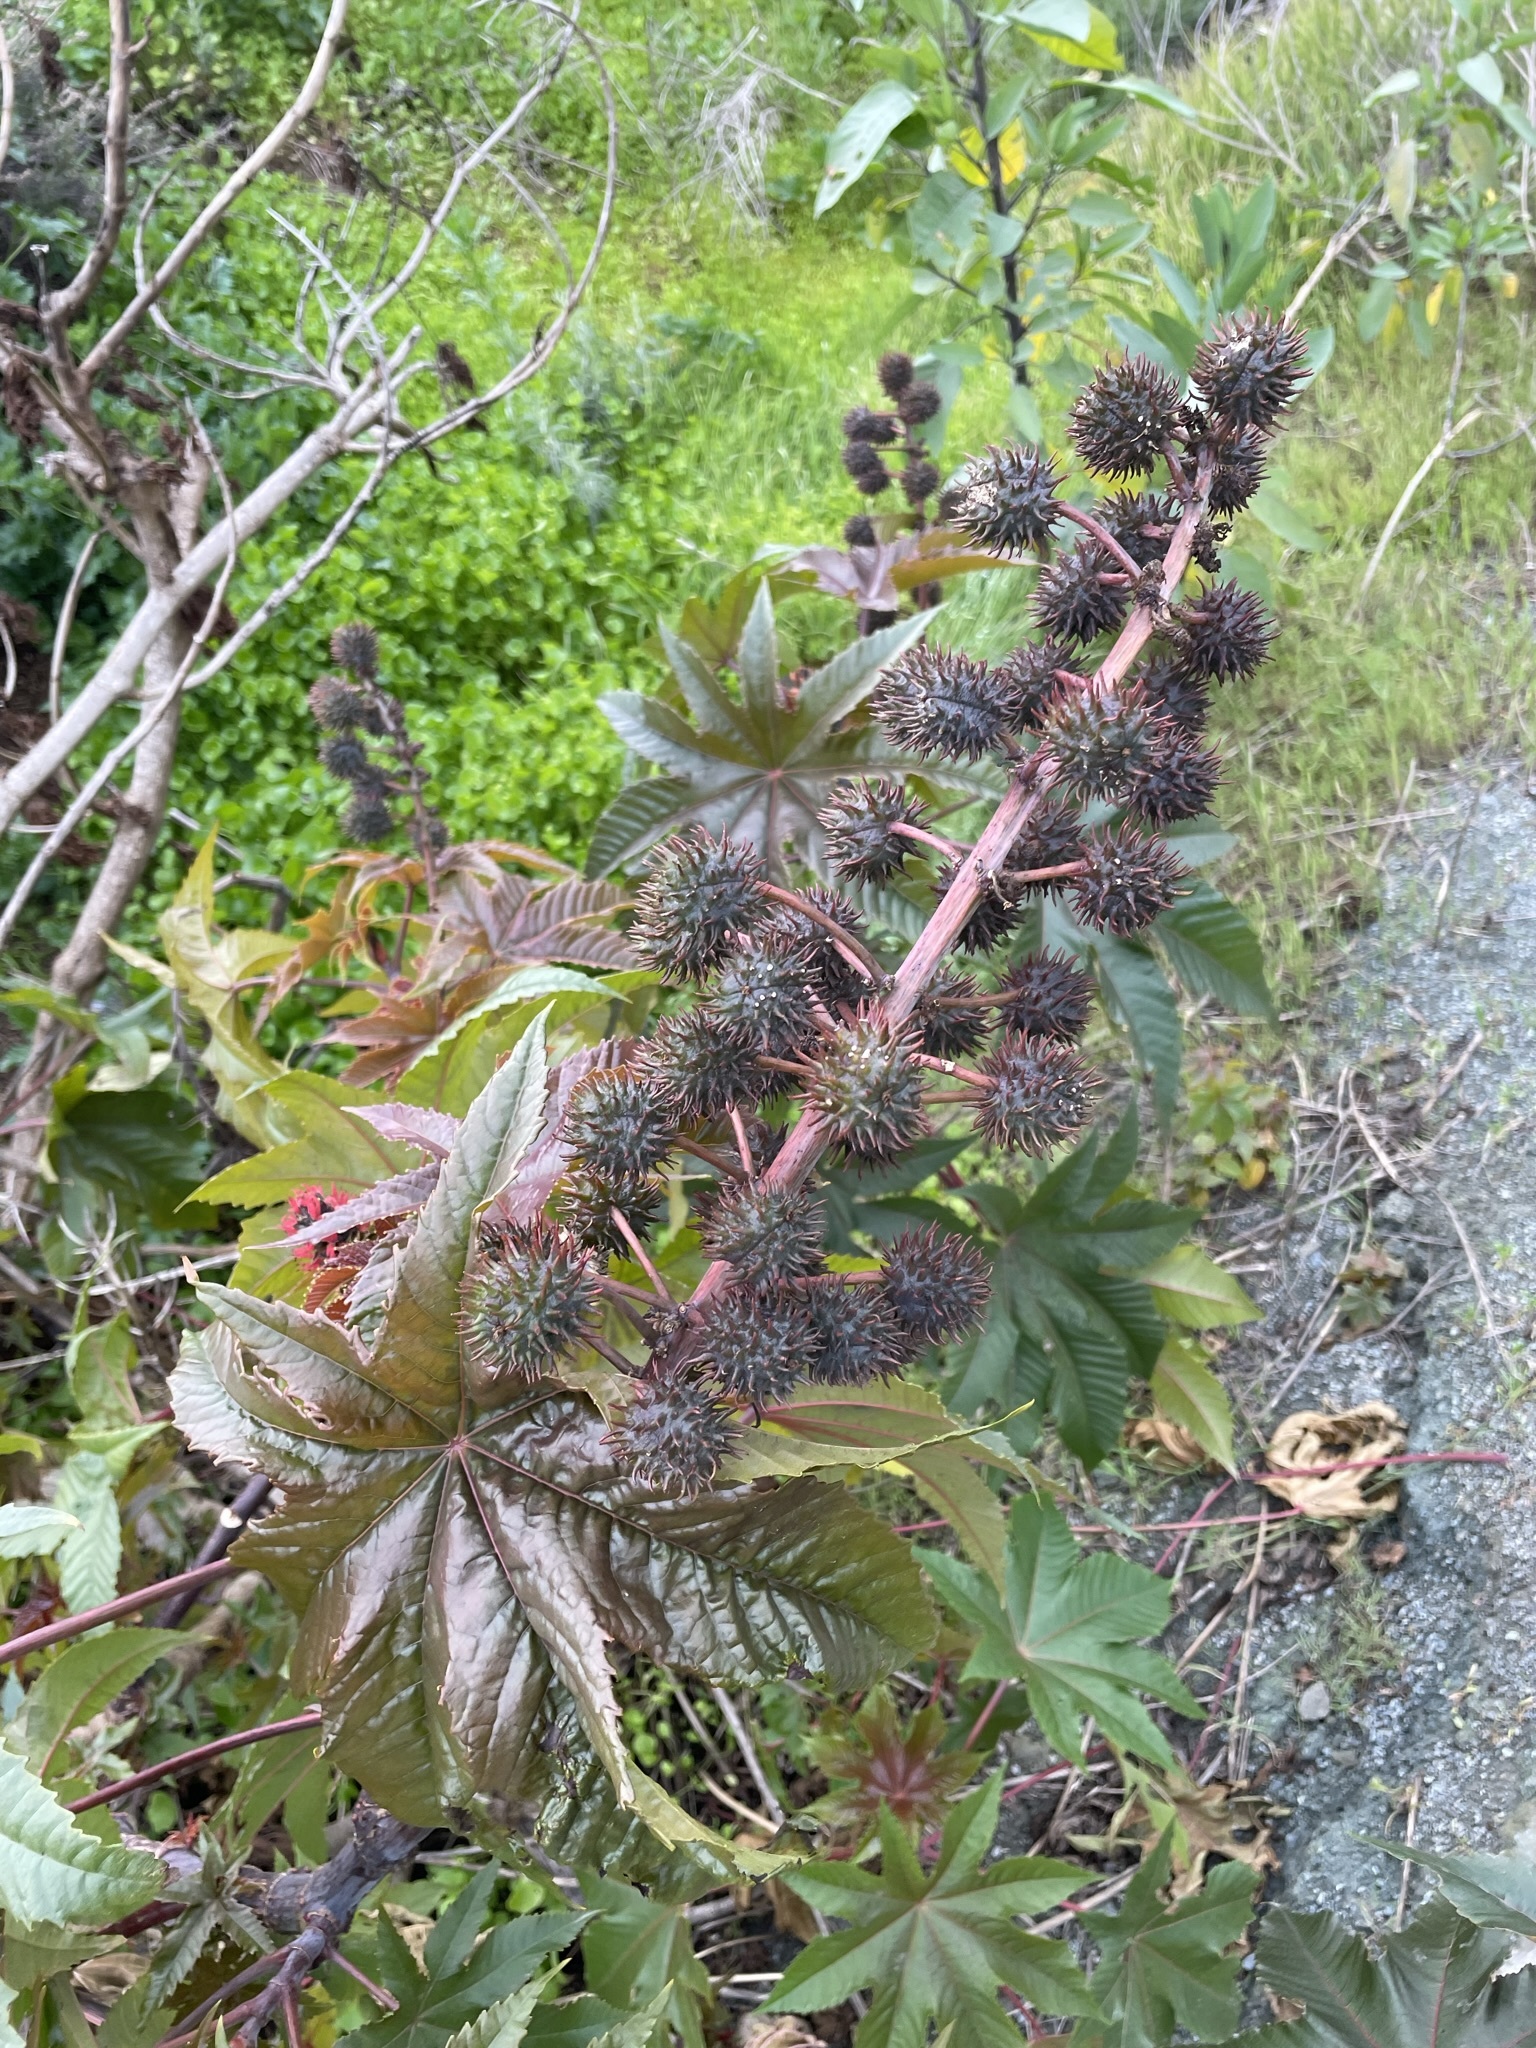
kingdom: Plantae
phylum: Tracheophyta
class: Magnoliopsida
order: Malpighiales
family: Euphorbiaceae
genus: Ricinus
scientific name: Ricinus communis
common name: Castor-oil-plant
